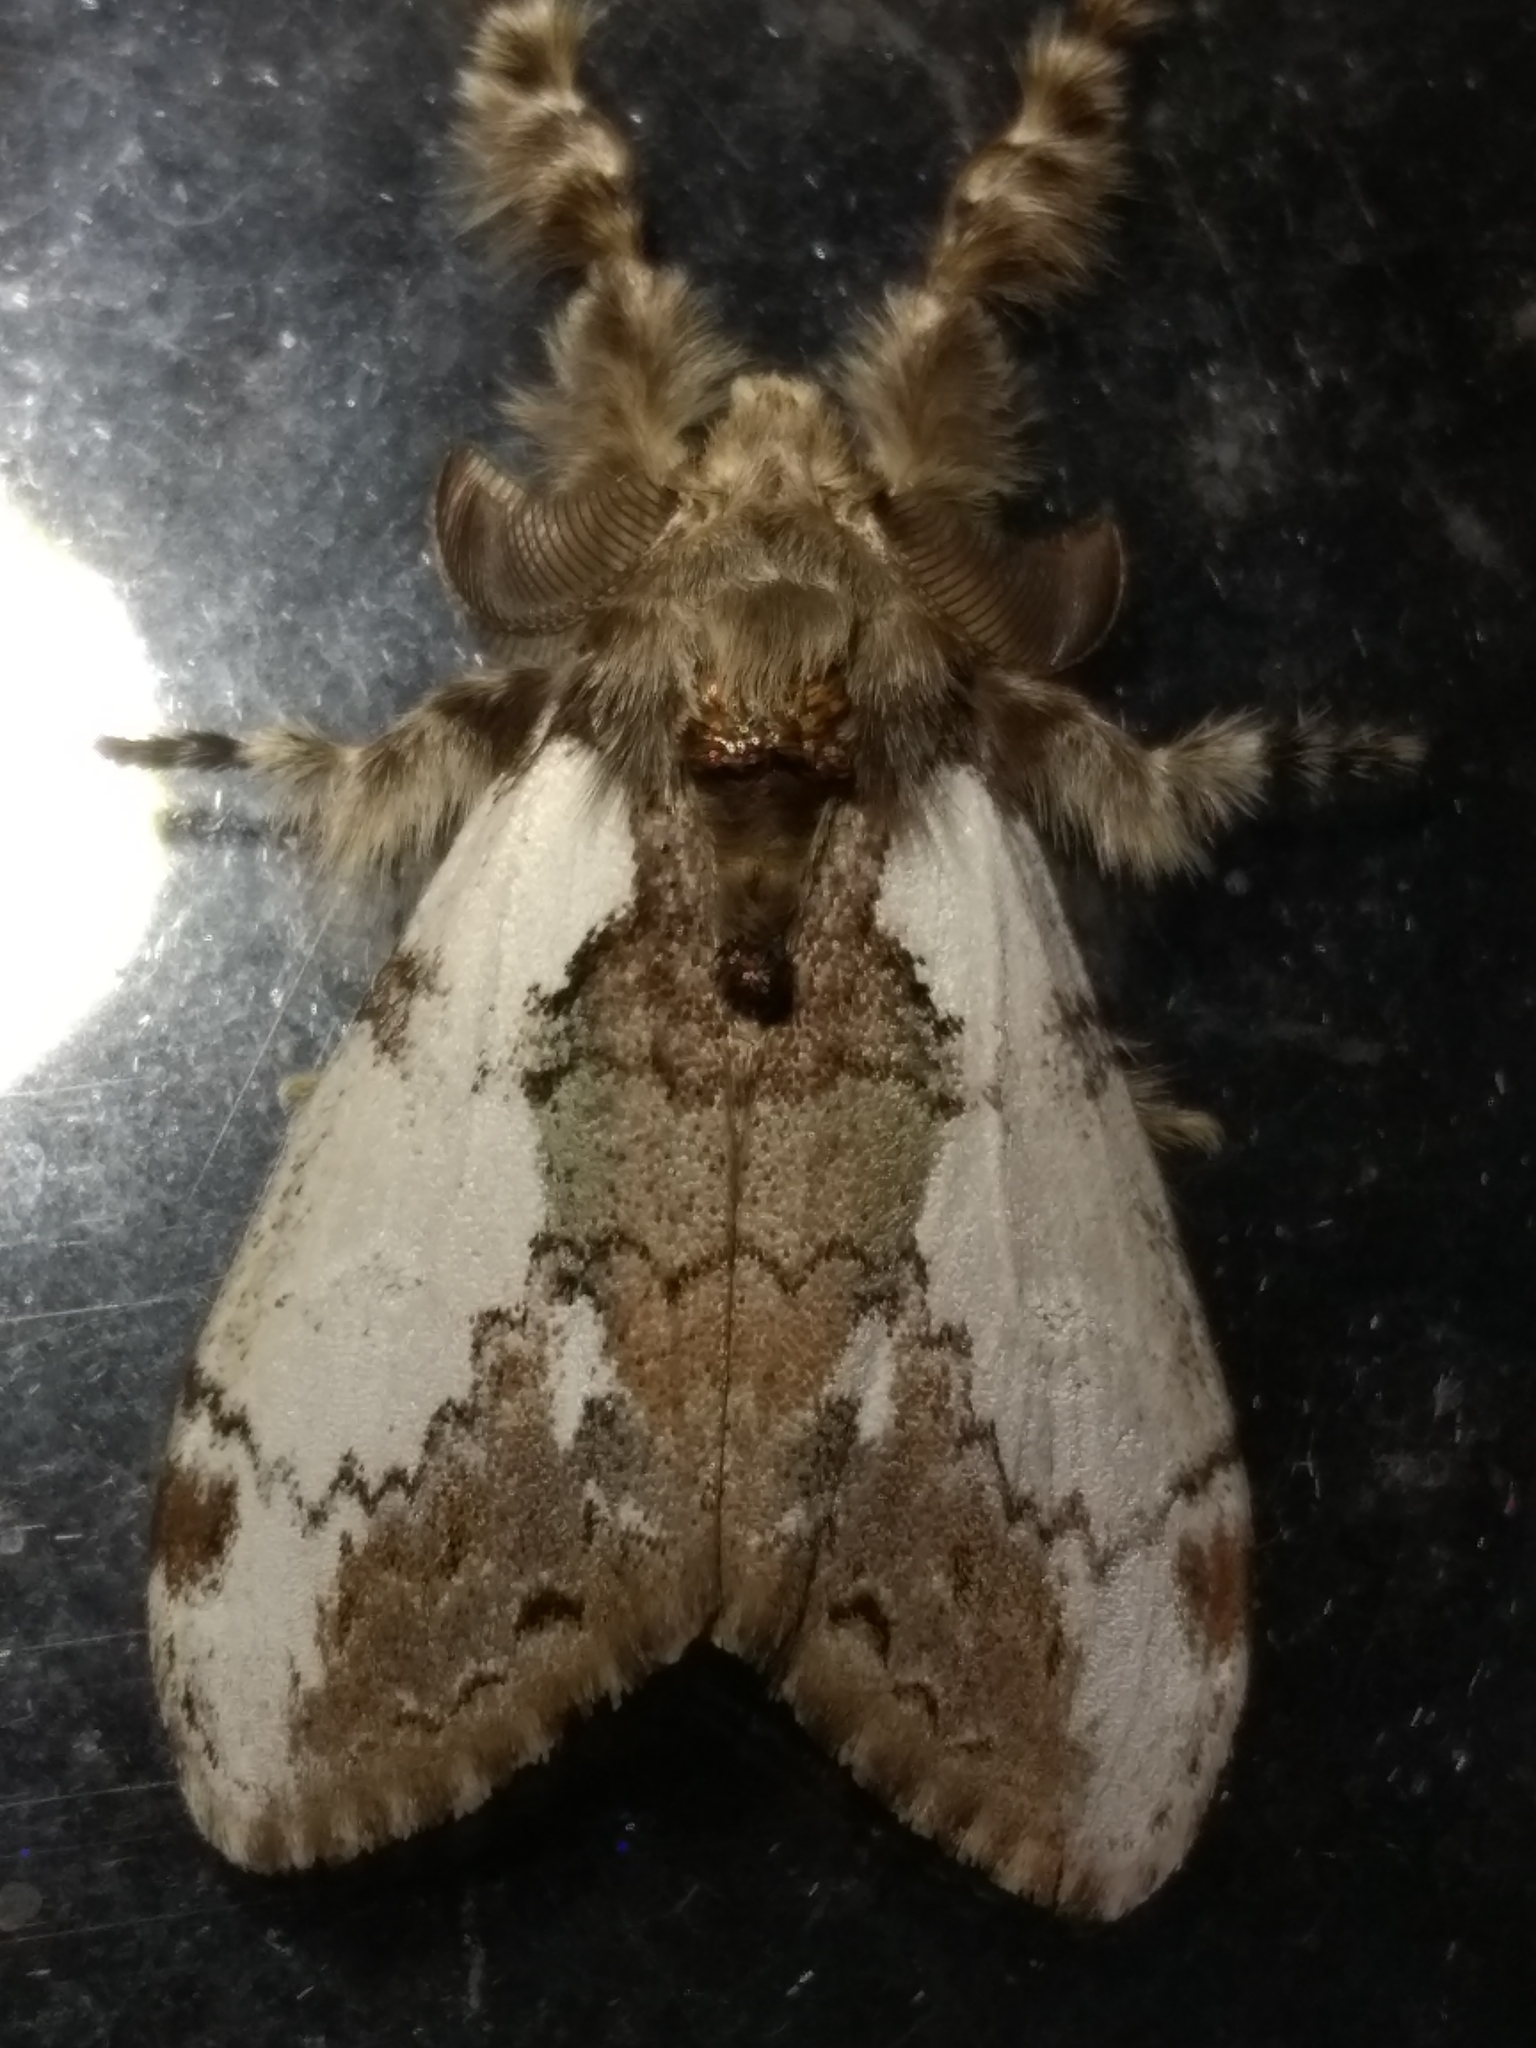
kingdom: Animalia
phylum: Arthropoda
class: Insecta
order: Lepidoptera
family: Erebidae
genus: Olene
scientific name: Olene mendosa
